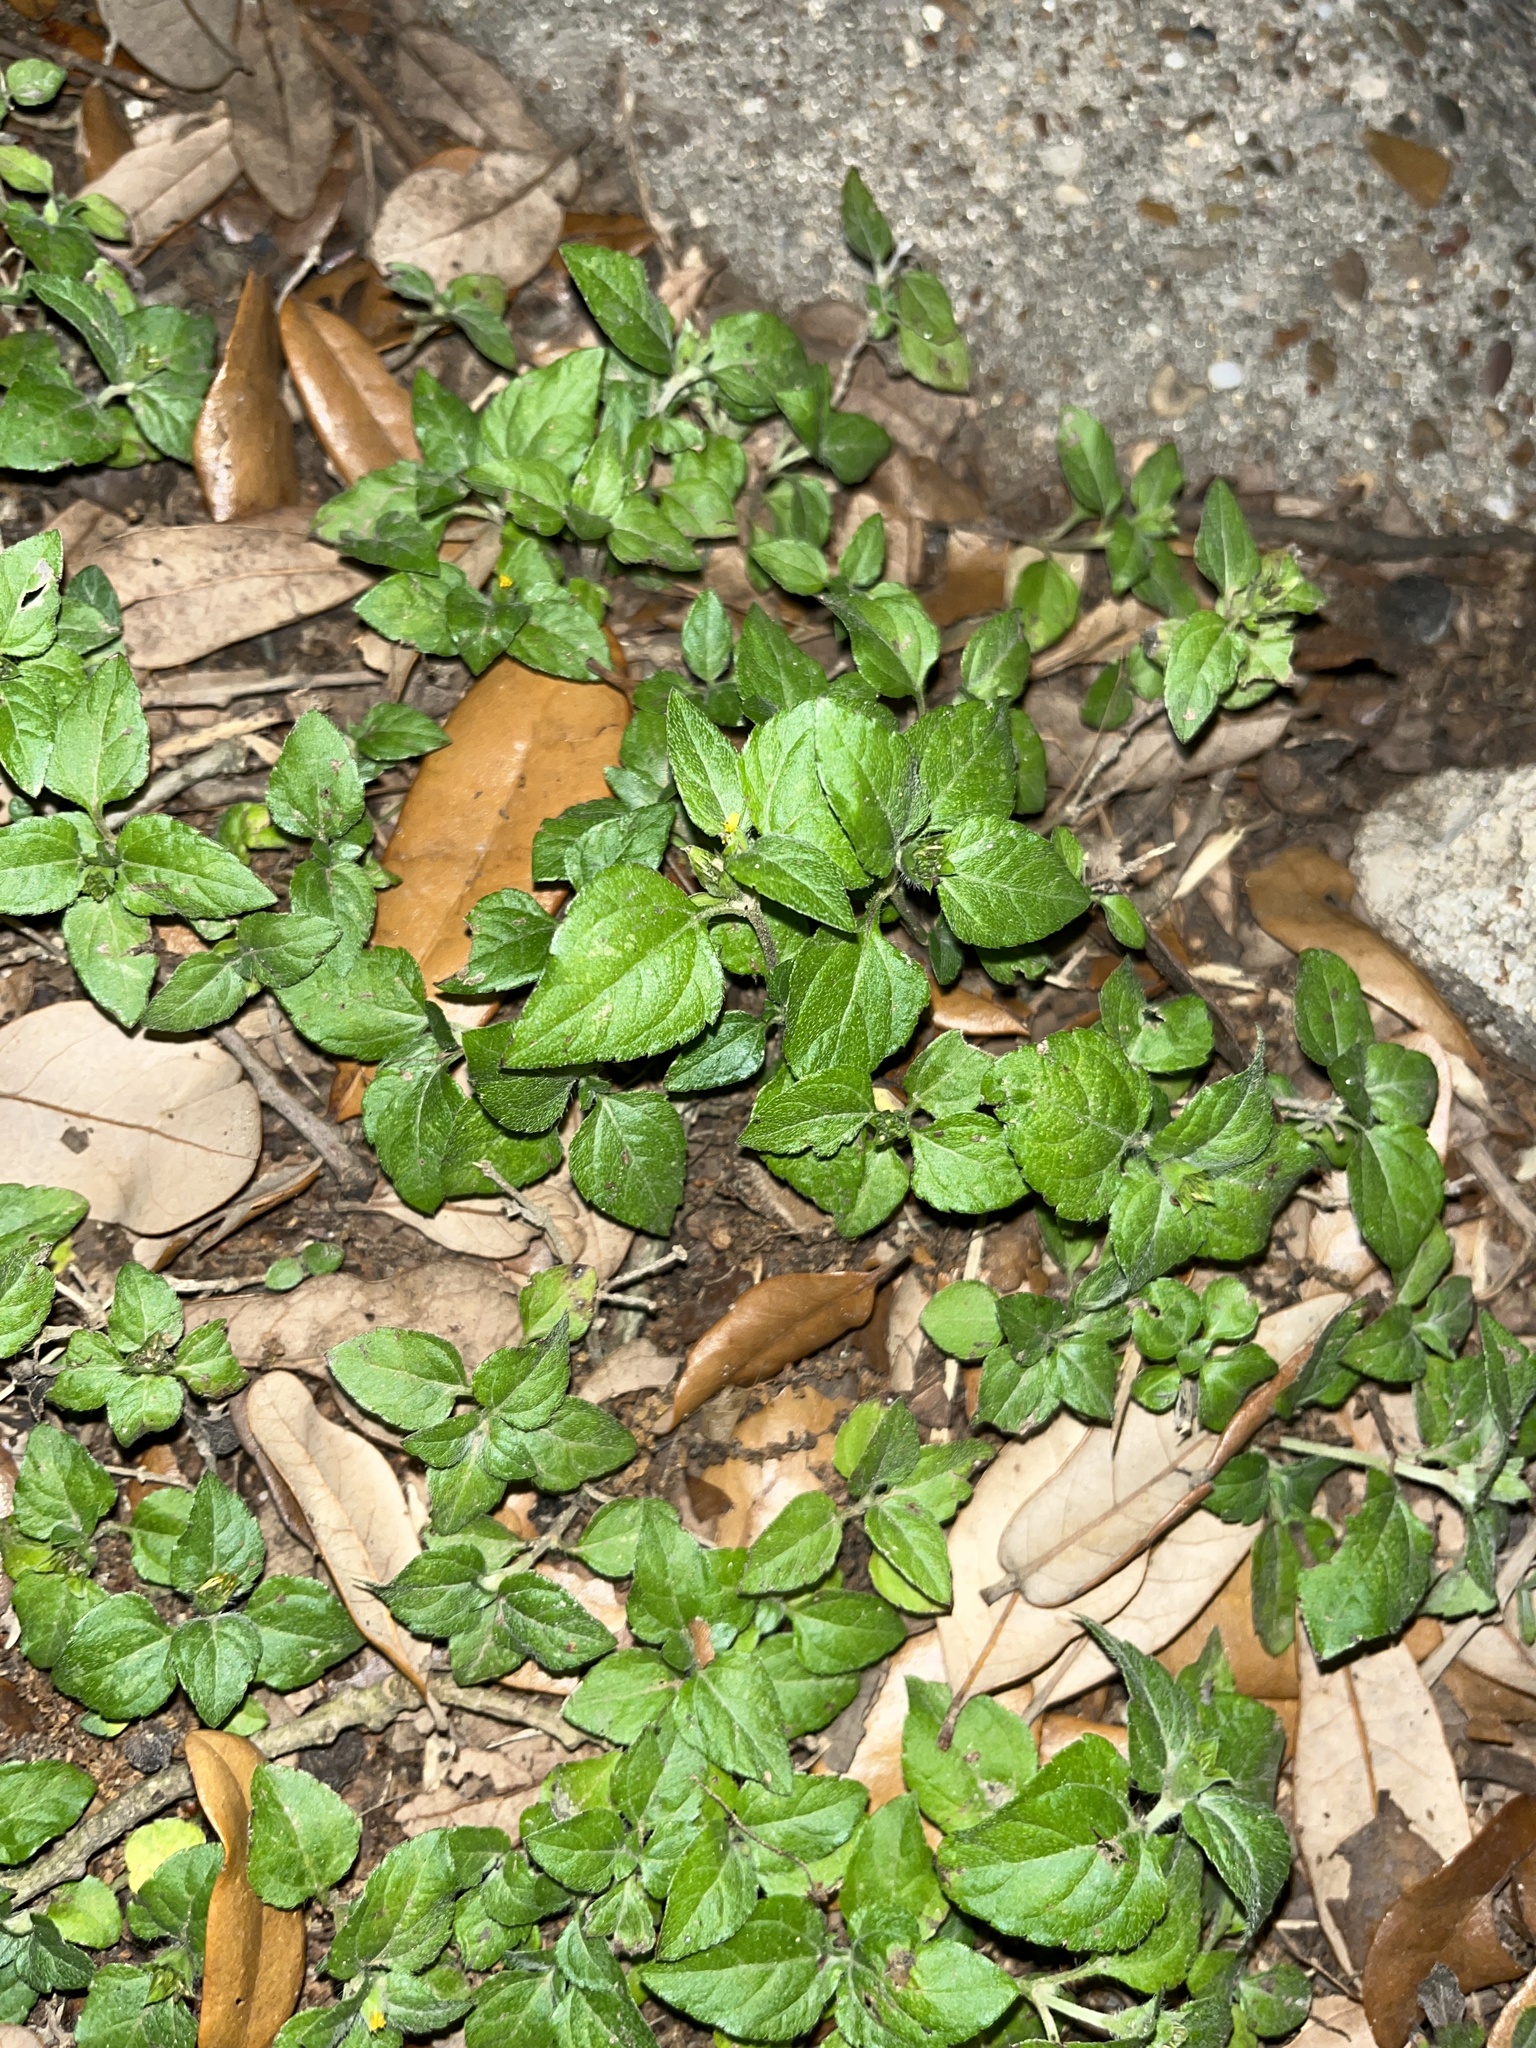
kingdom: Plantae
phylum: Tracheophyta
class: Magnoliopsida
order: Asterales
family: Asteraceae
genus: Calyptocarpus
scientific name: Calyptocarpus vialis
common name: Straggler daisy
